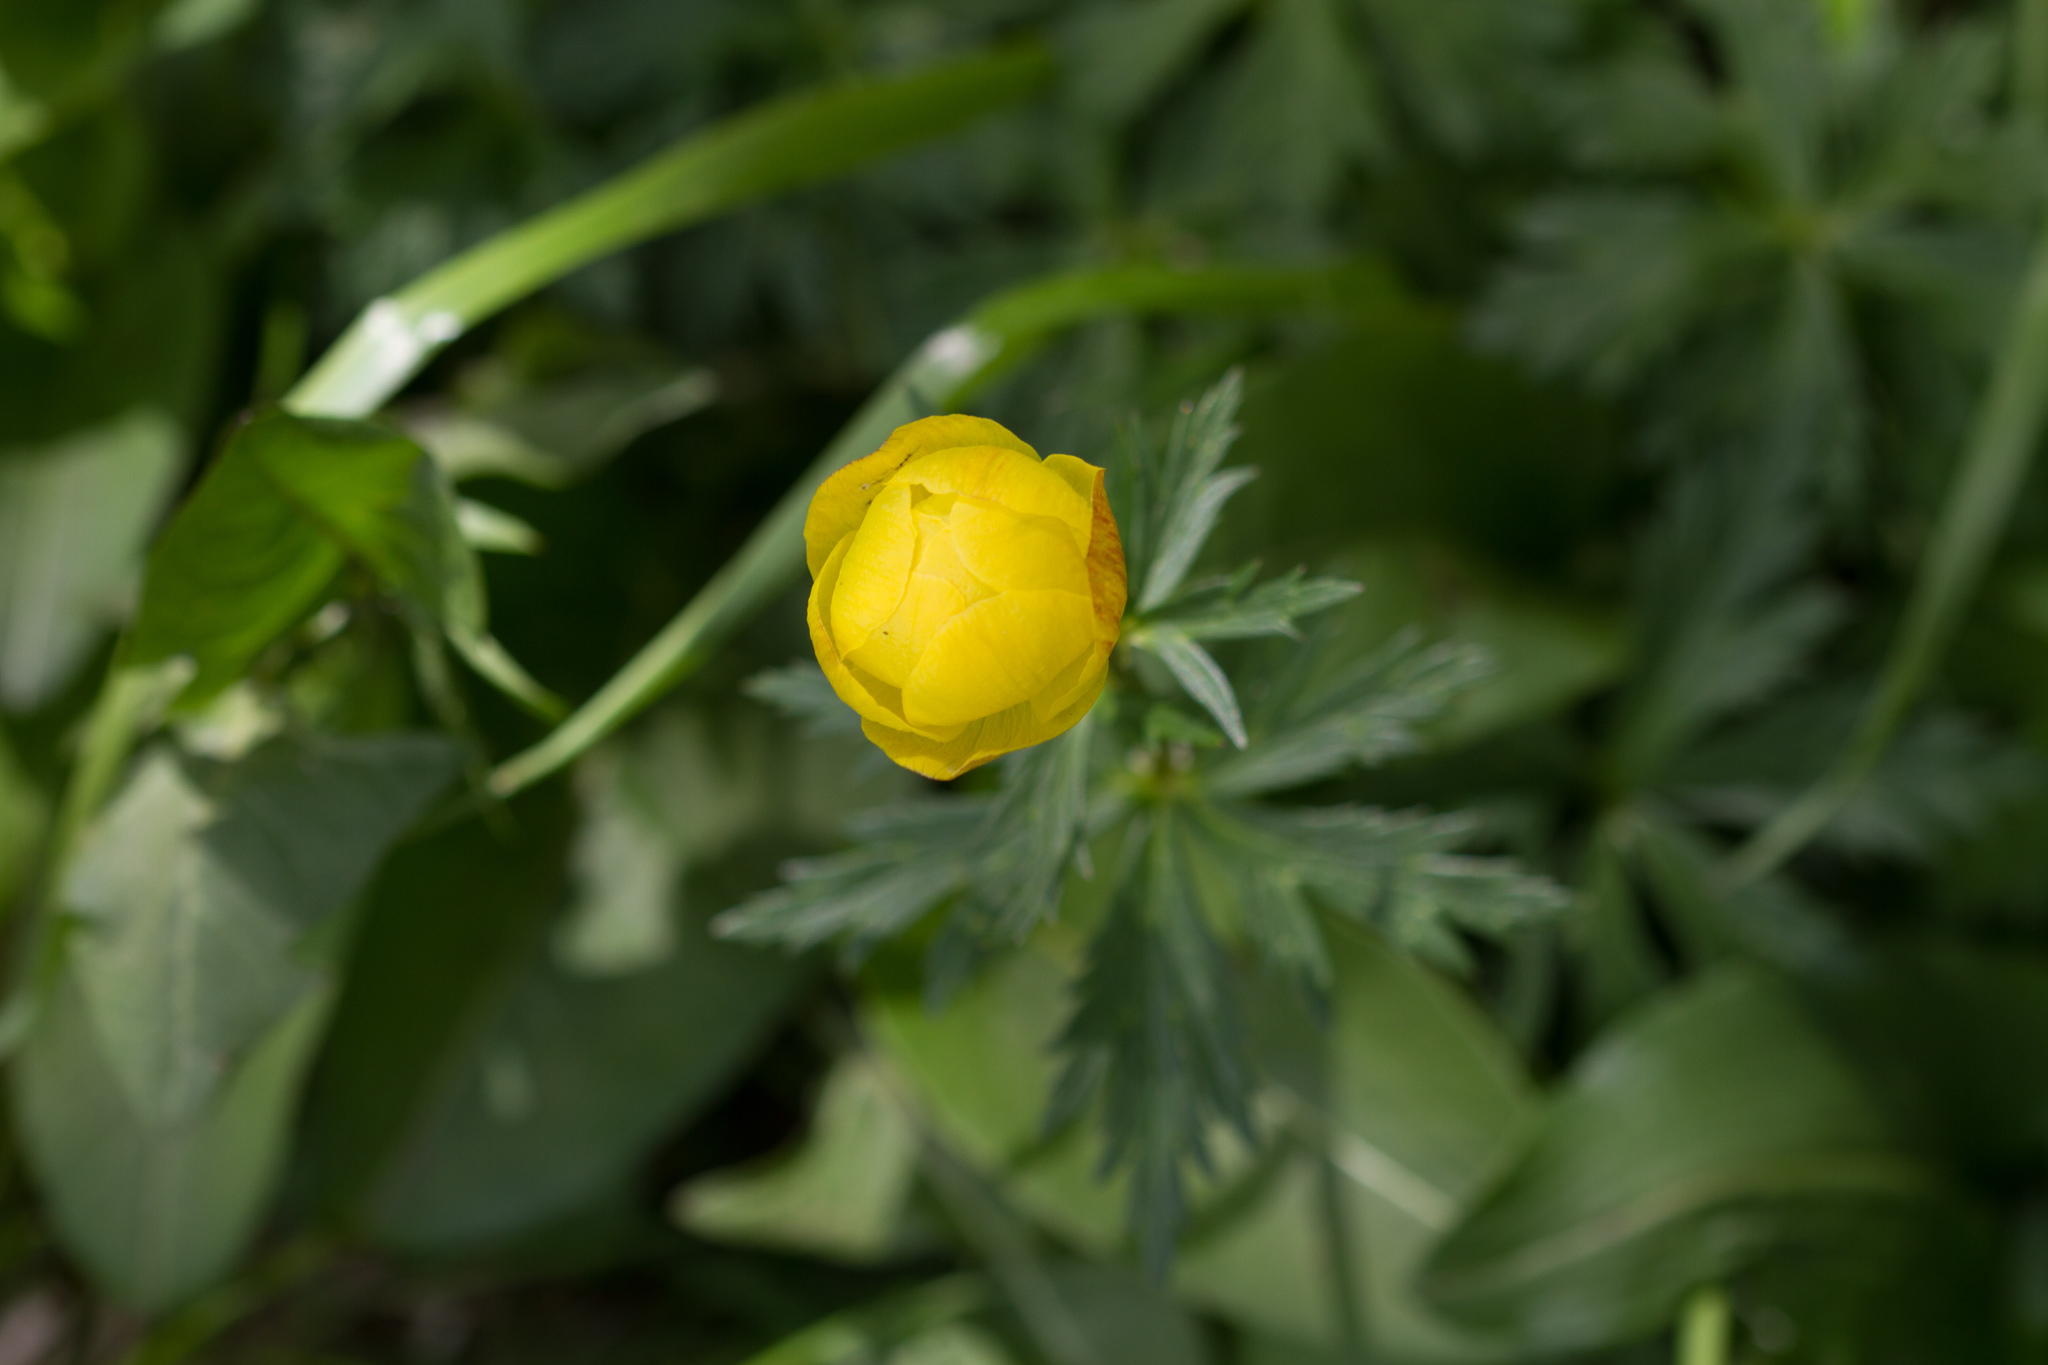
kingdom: Plantae
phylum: Tracheophyta
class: Magnoliopsida
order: Ranunculales
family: Ranunculaceae
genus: Trollius
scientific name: Trollius europaeus
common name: European globeflower
